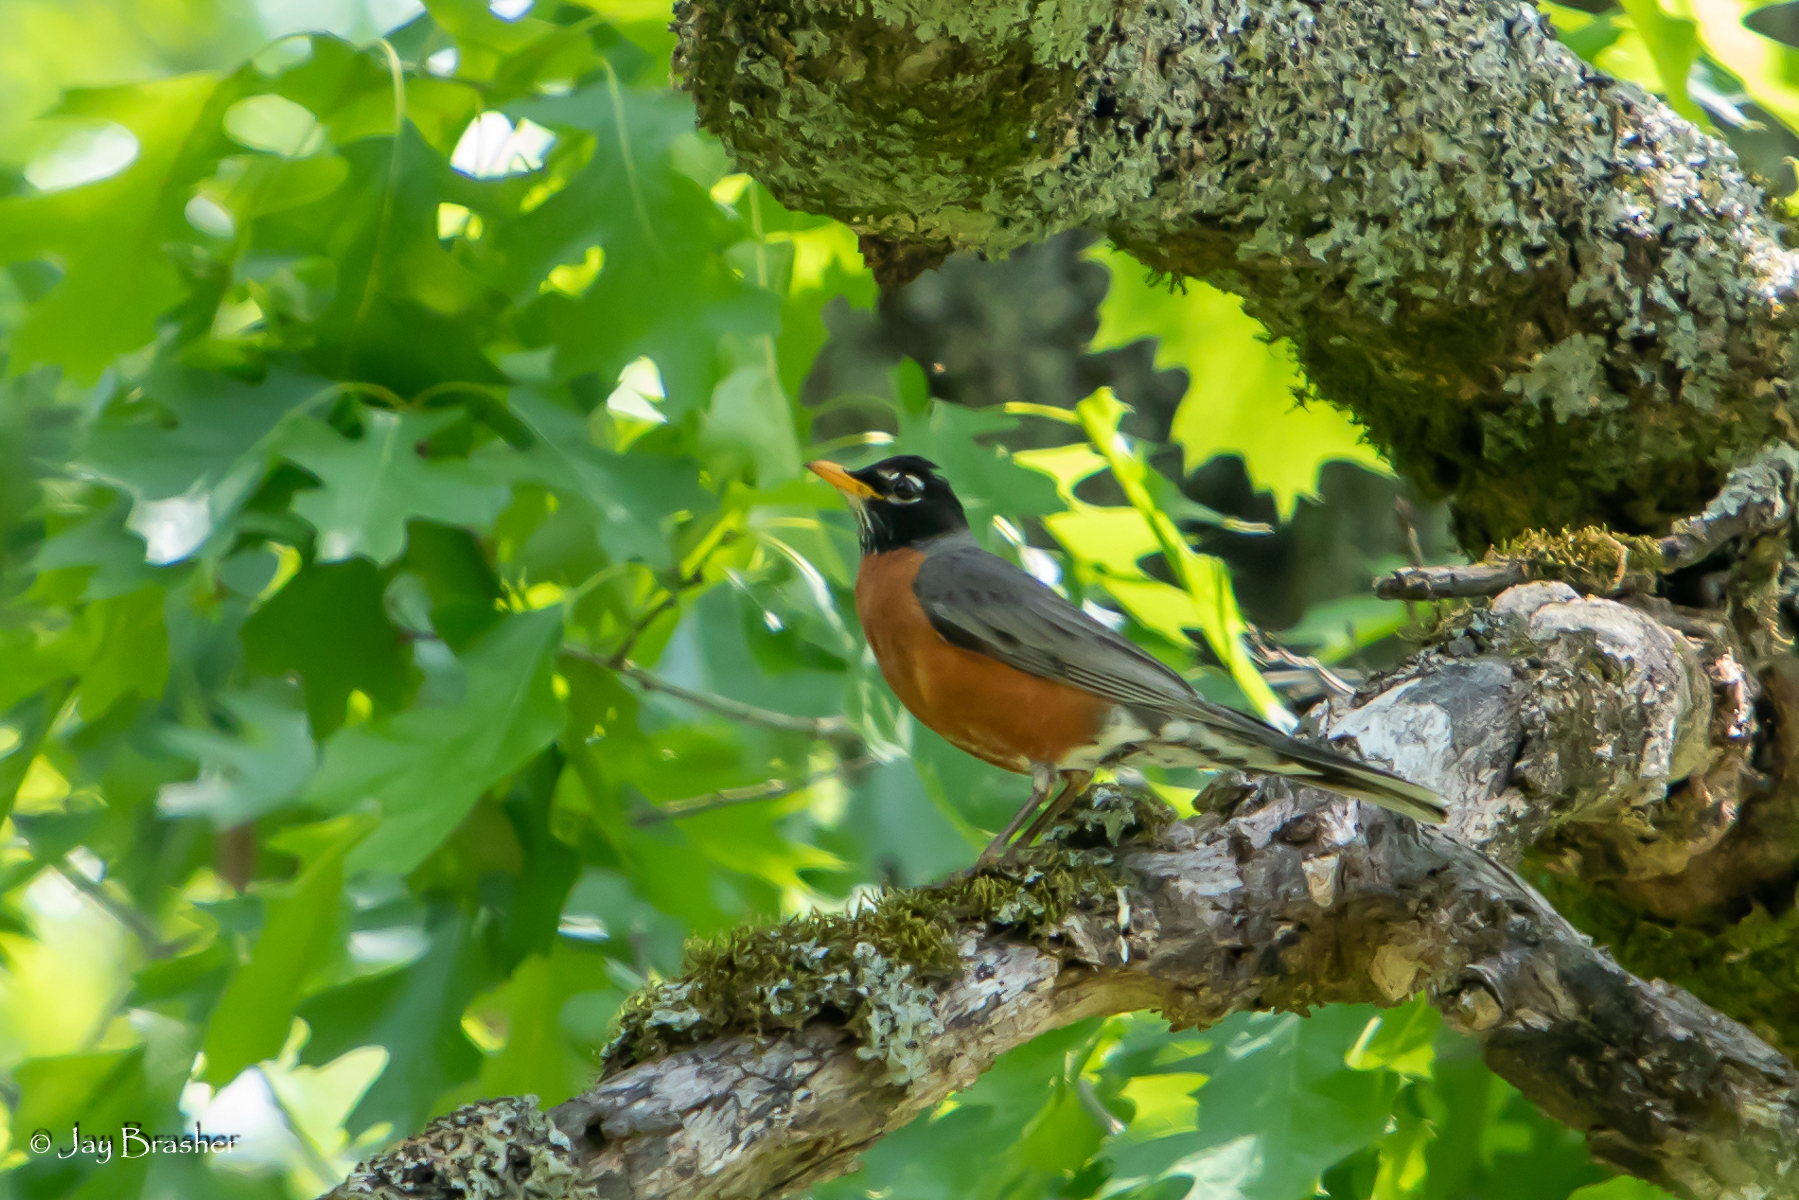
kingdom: Animalia
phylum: Chordata
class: Aves
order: Passeriformes
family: Turdidae
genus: Turdus
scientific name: Turdus migratorius
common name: American robin
